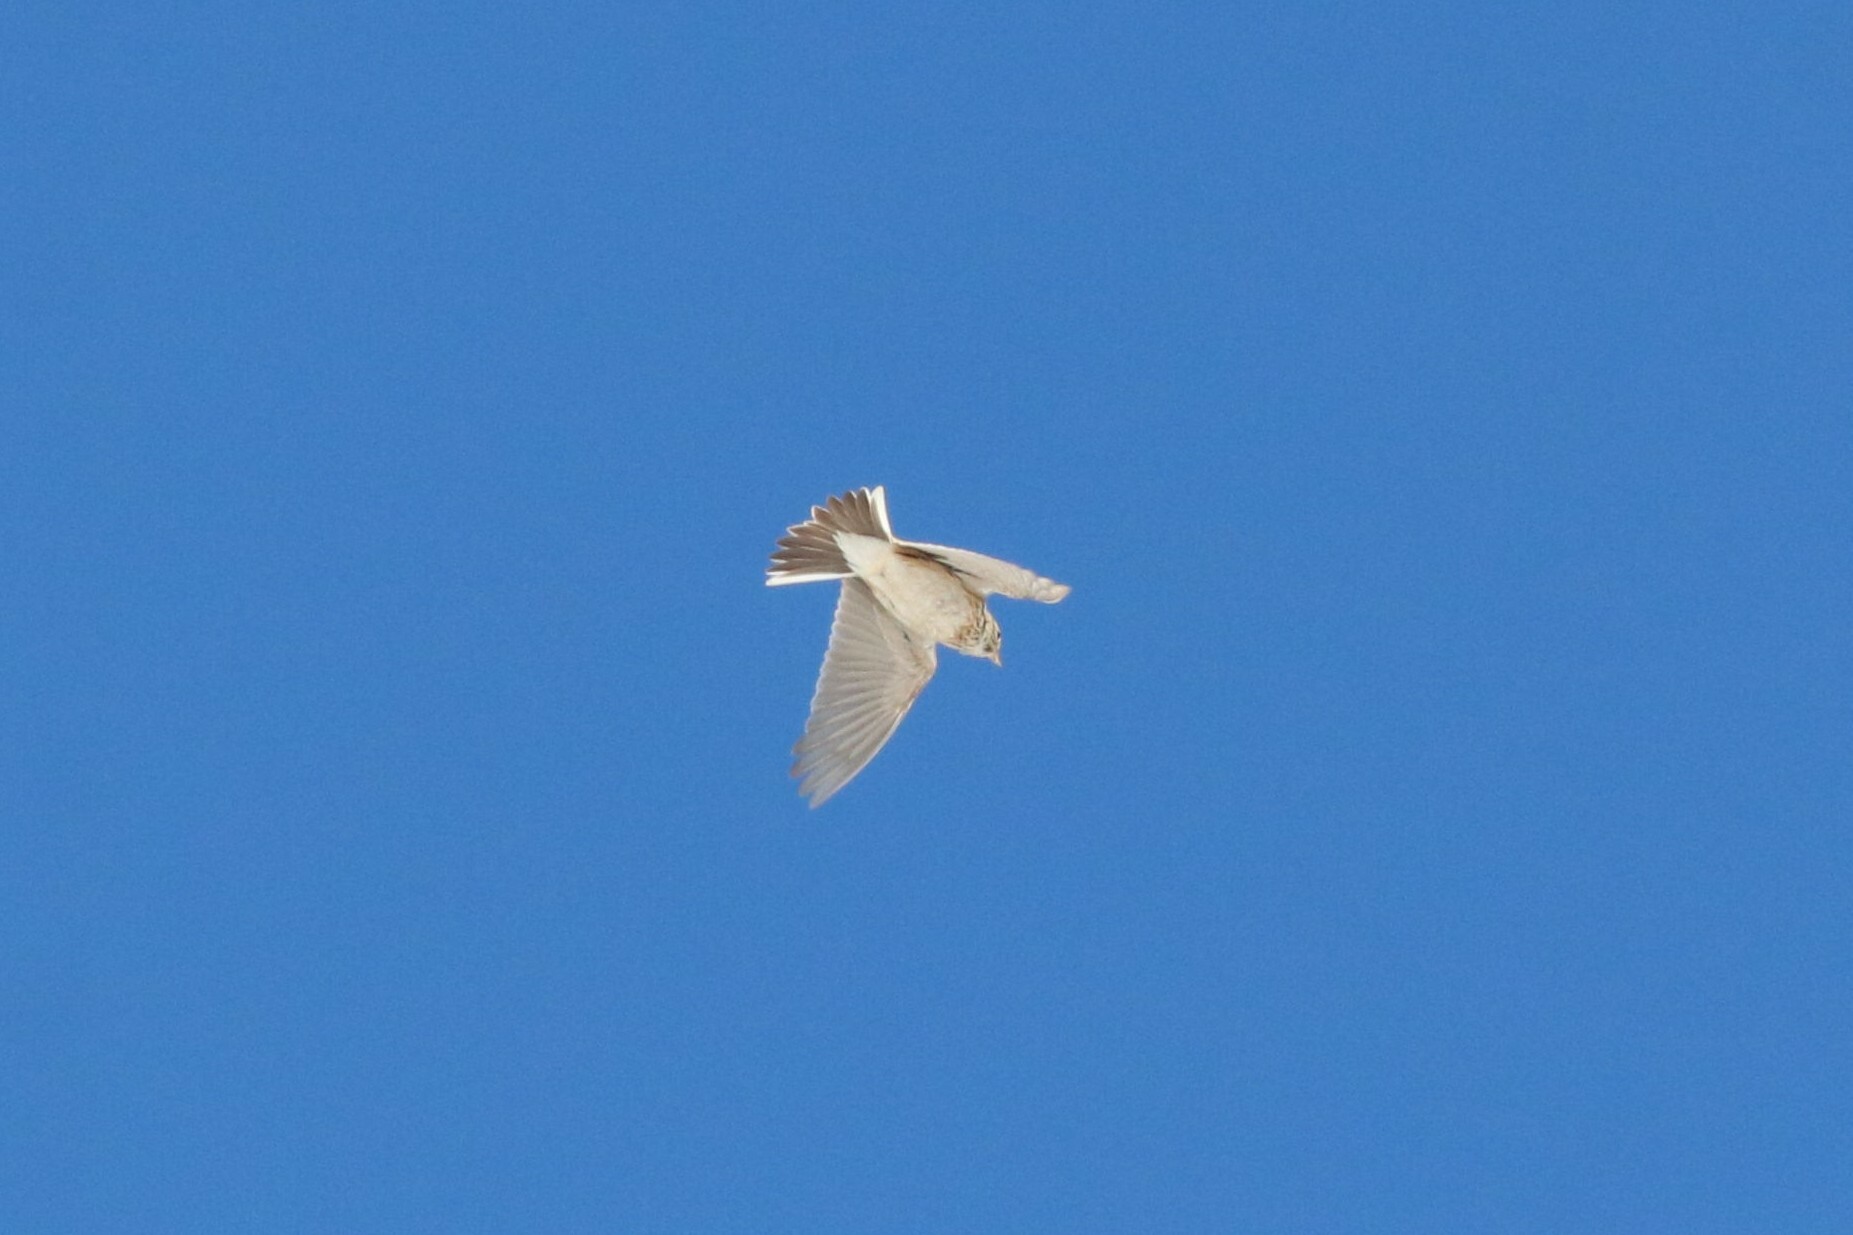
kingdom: Animalia
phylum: Chordata
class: Aves
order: Passeriformes
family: Alaudidae
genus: Alauda
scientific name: Alauda arvensis
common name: Eurasian skylark
